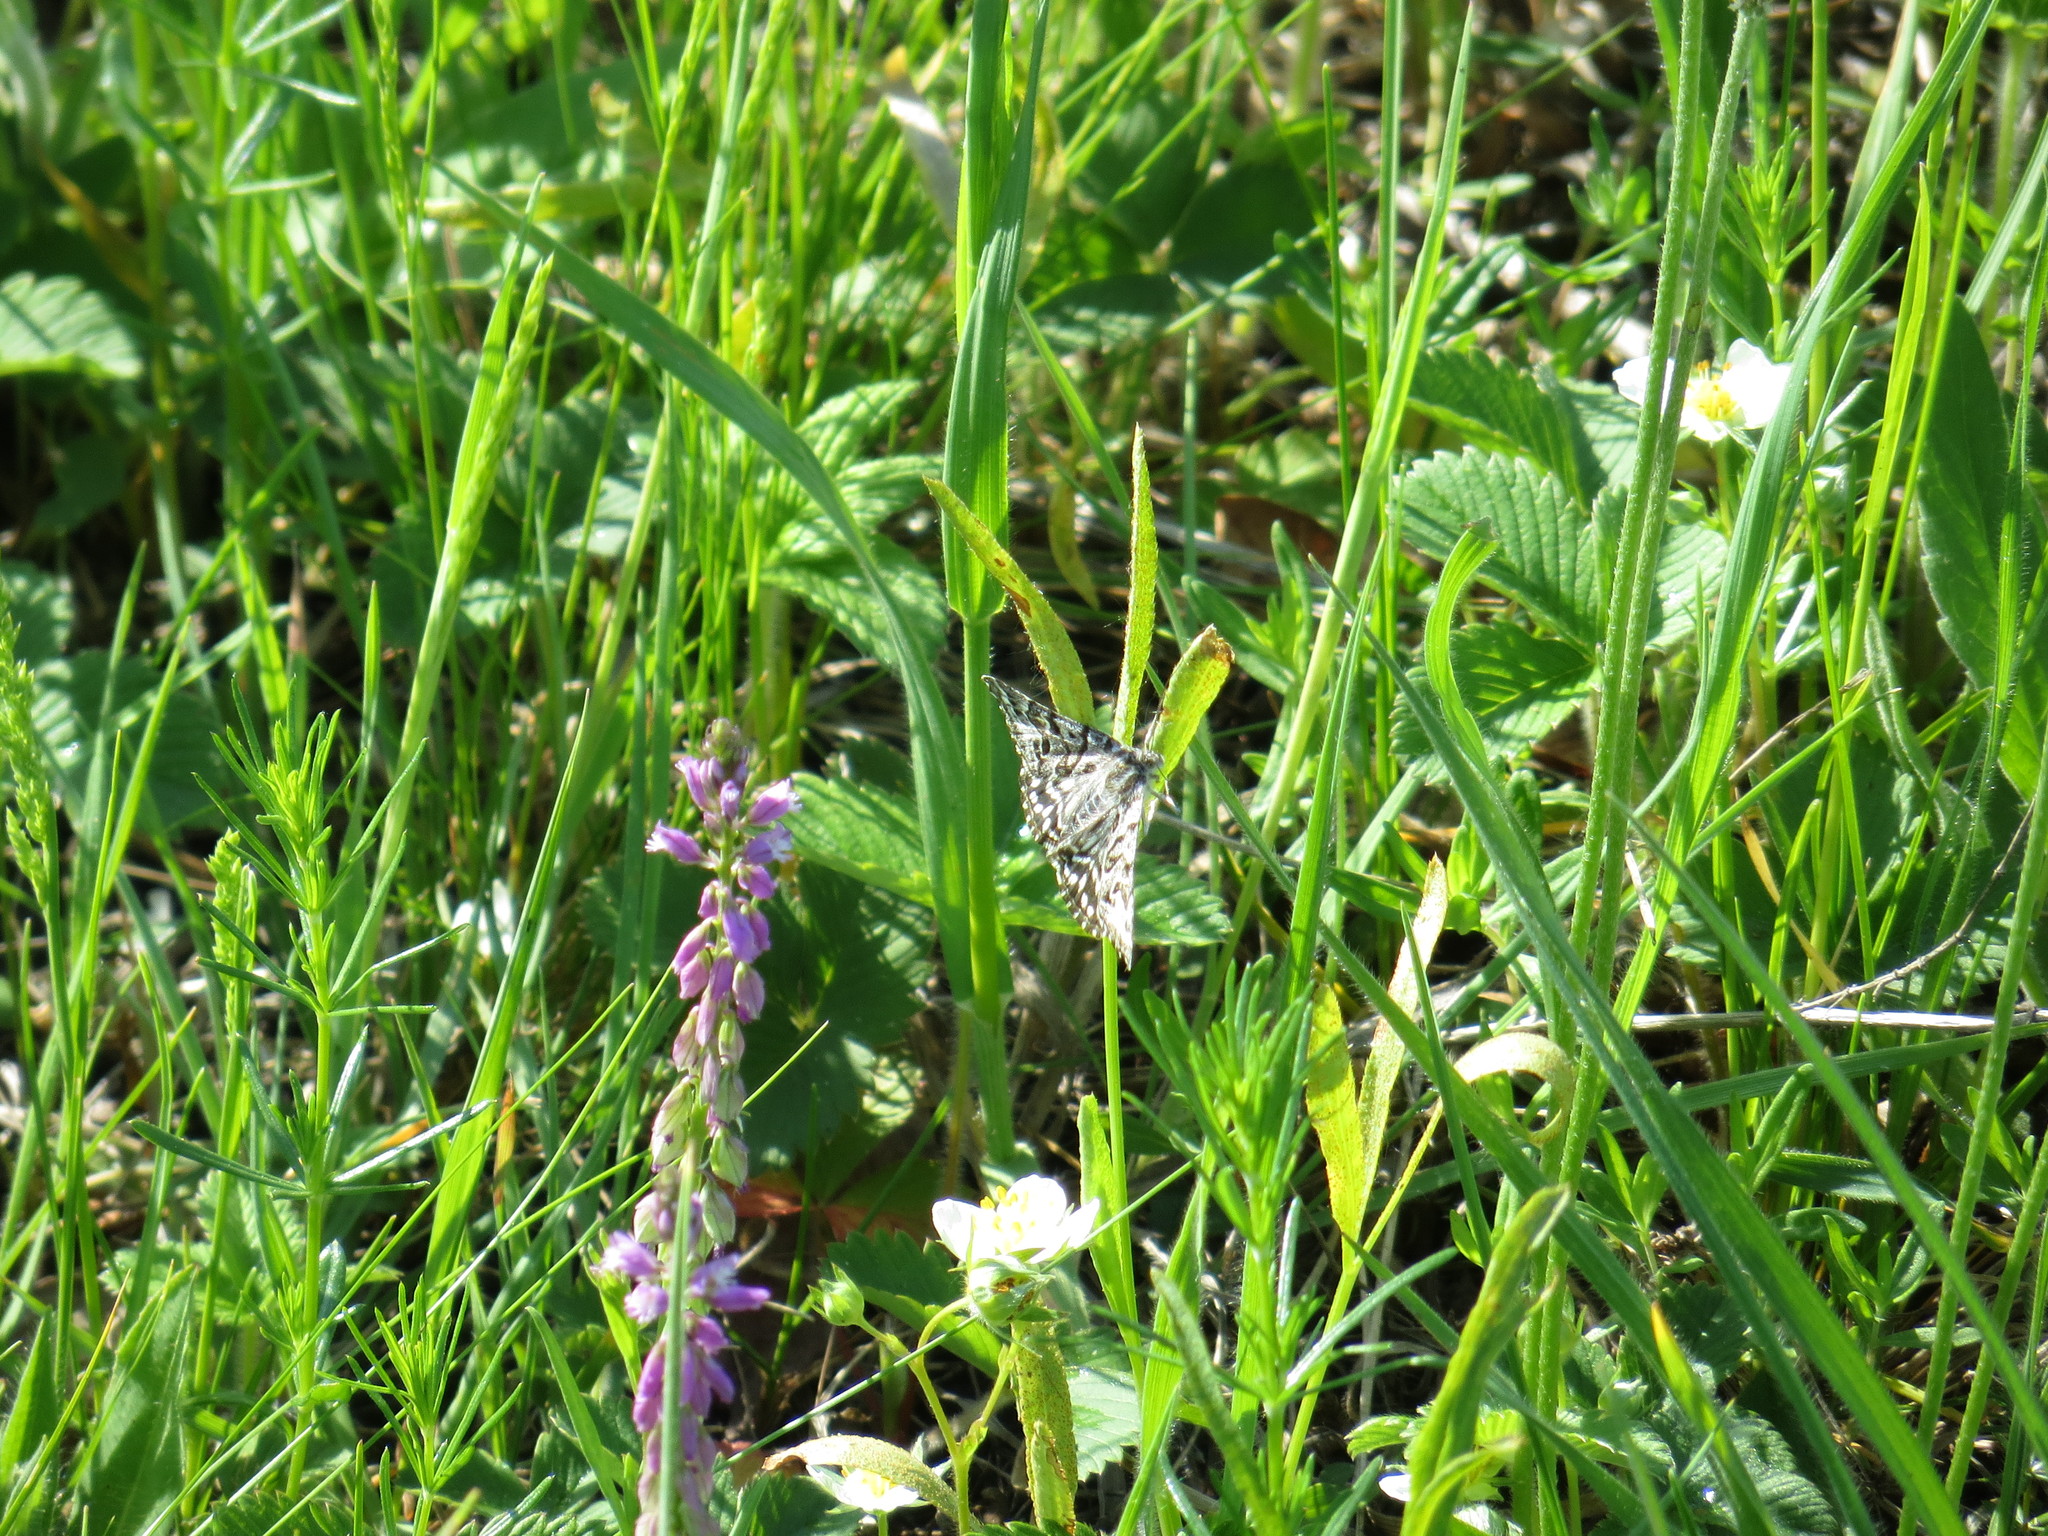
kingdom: Animalia
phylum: Arthropoda
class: Insecta
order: Lepidoptera
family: Erebidae
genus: Callistege
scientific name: Callistege mi
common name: Mother shipton
